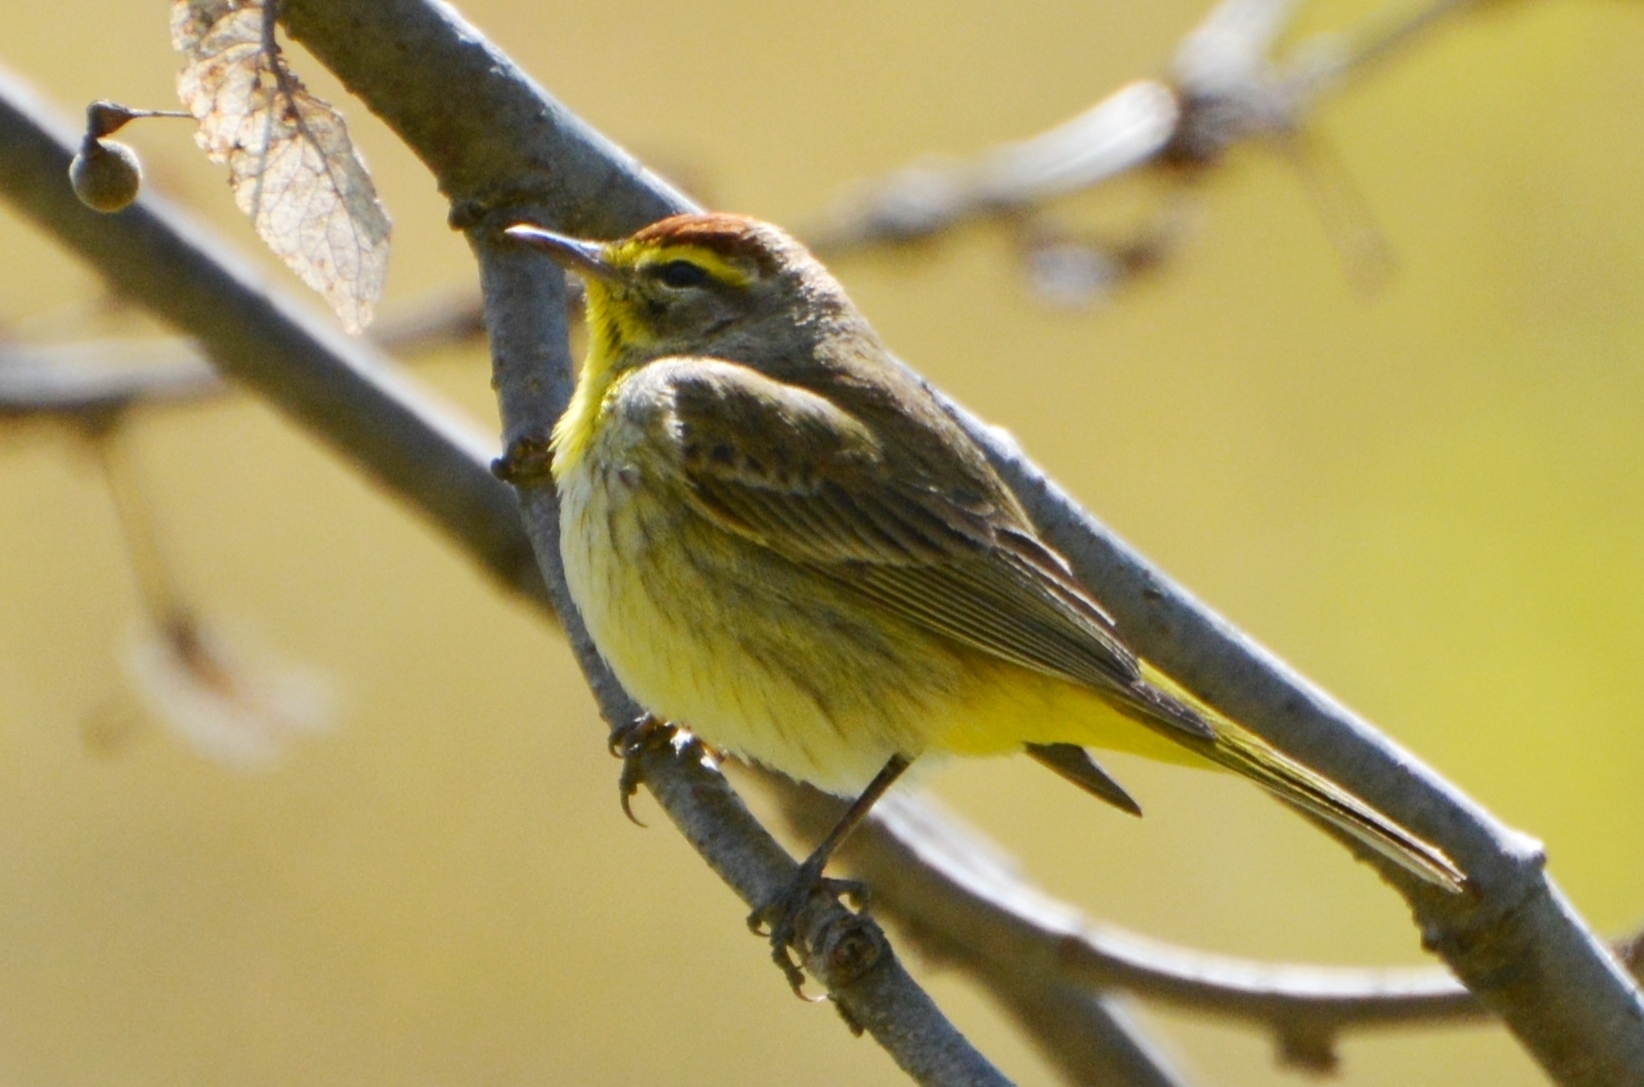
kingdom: Animalia
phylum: Chordata
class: Aves
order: Passeriformes
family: Parulidae
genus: Setophaga
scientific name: Setophaga palmarum
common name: Palm warbler
